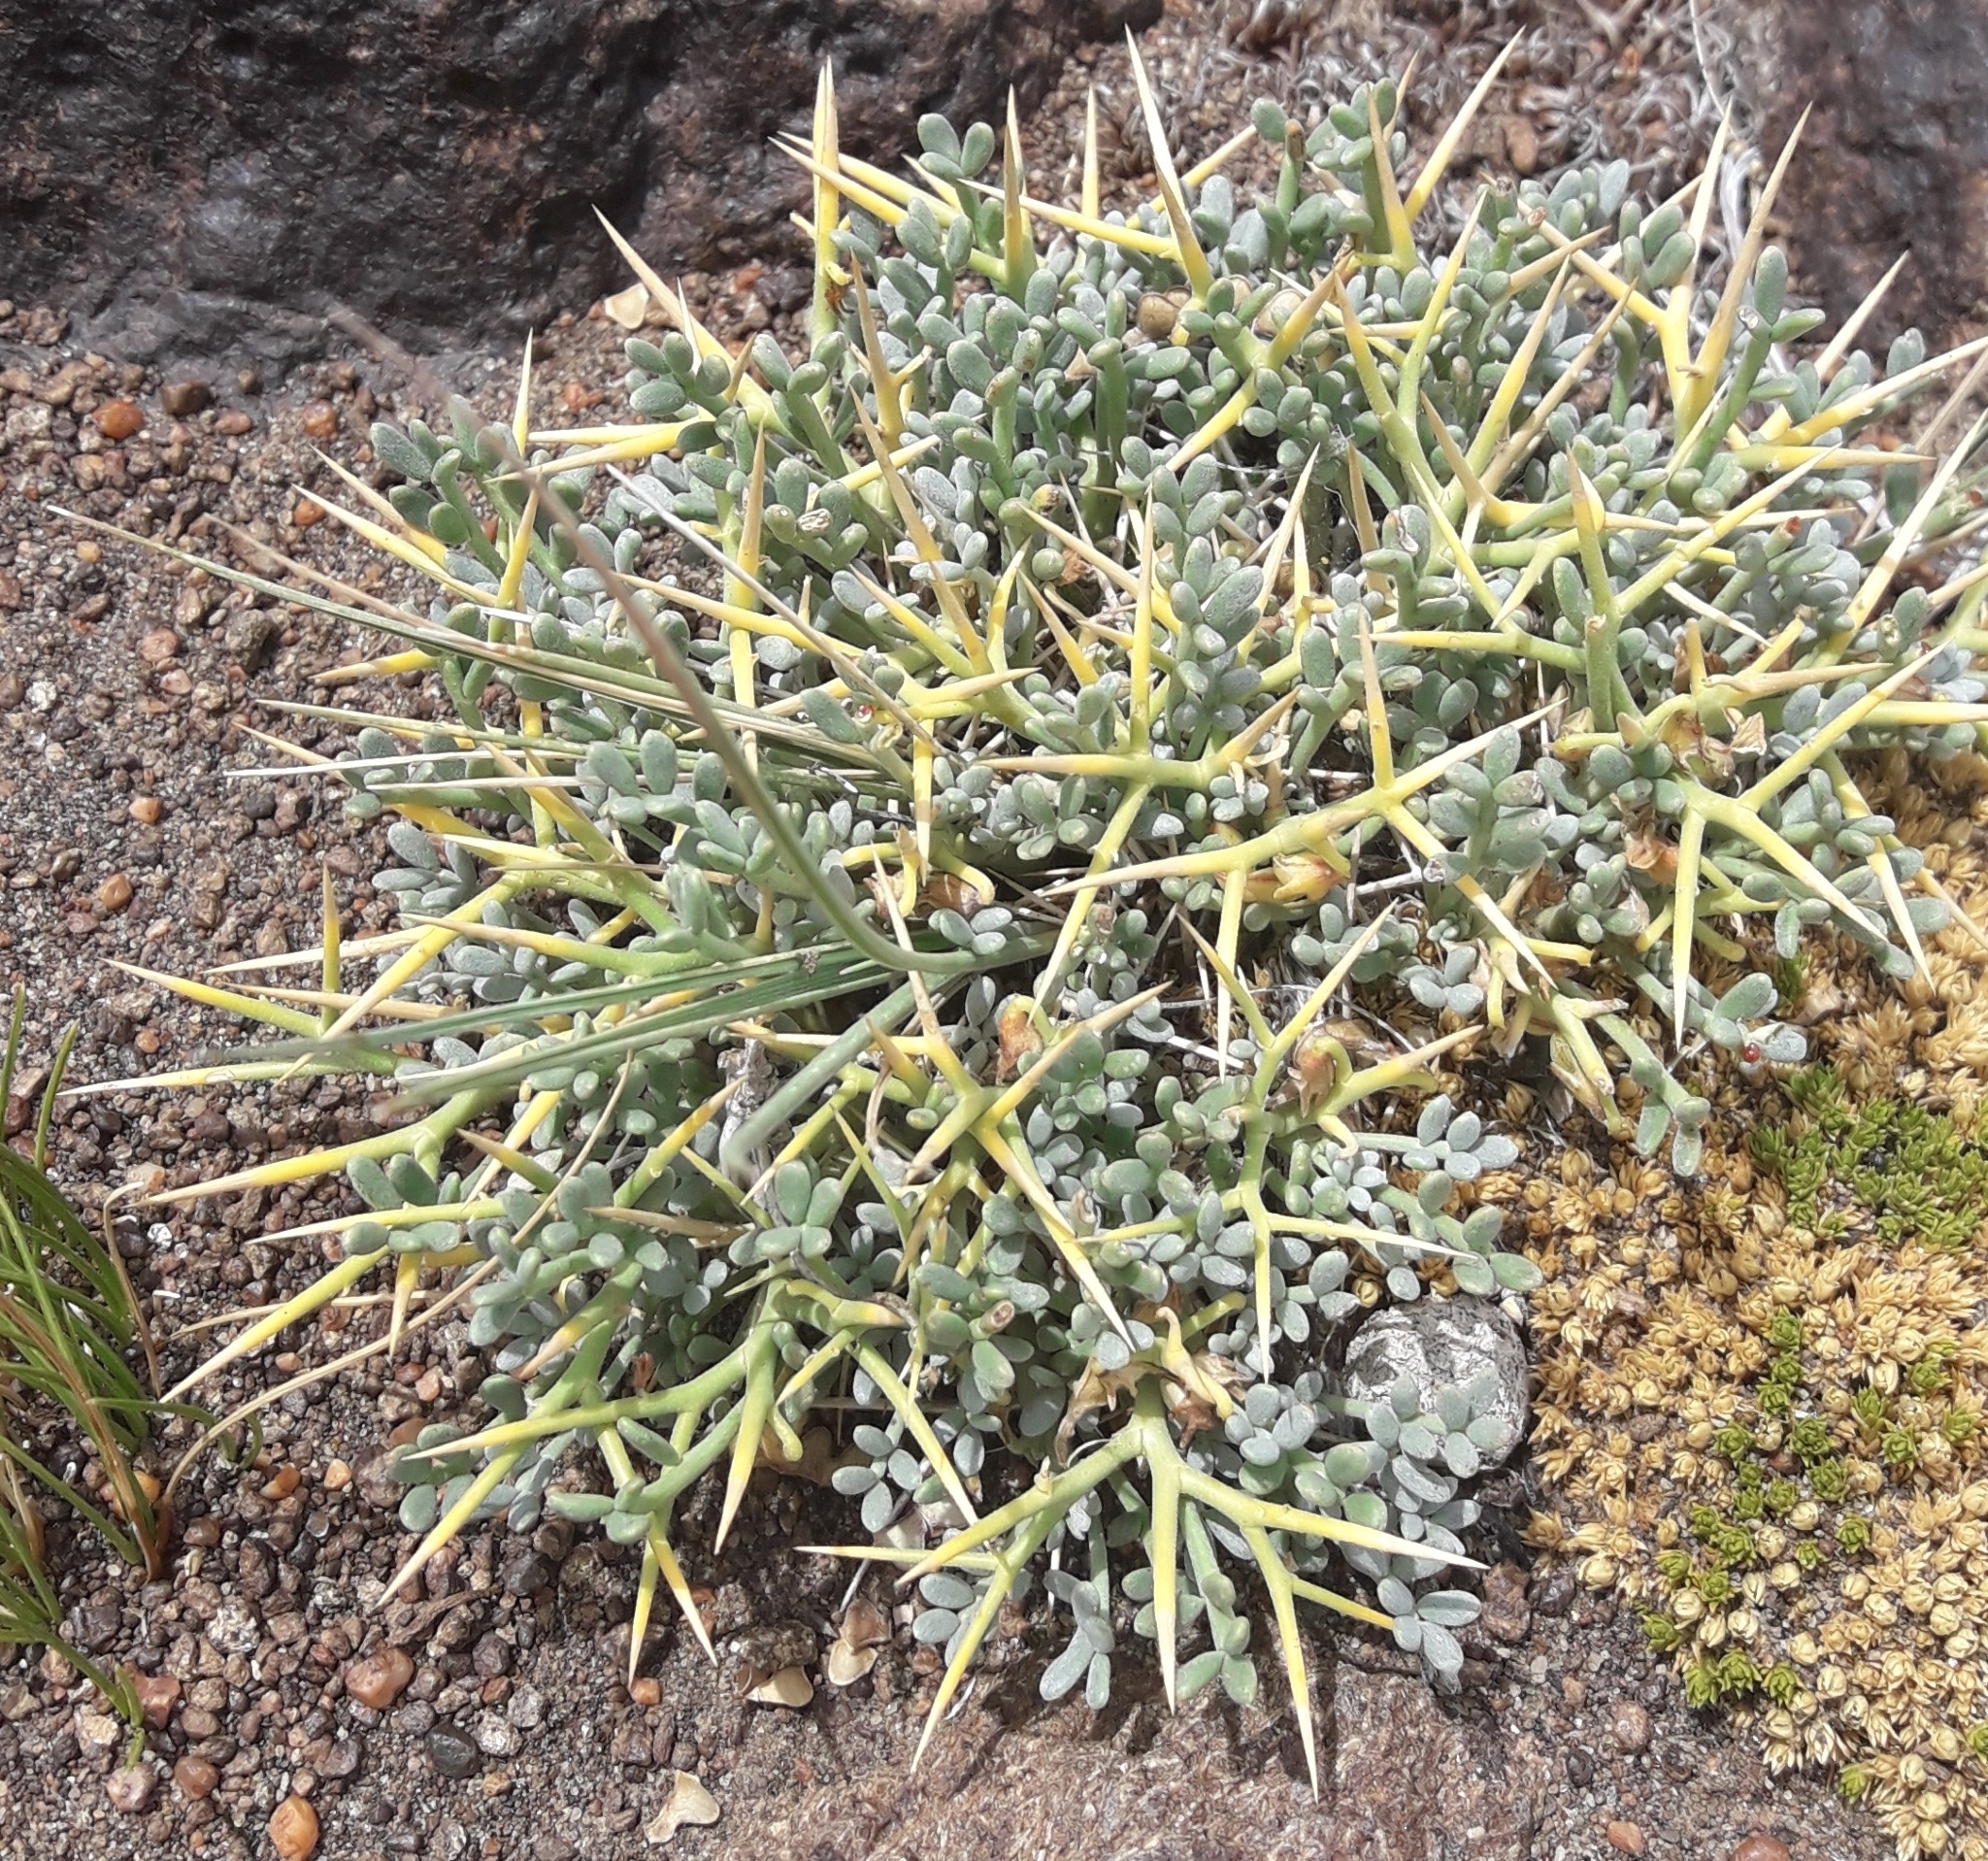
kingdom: Plantae
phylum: Tracheophyta
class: Magnoliopsida
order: Fabales
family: Fabaceae
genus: Adesmia
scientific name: Adesmia obcordata
